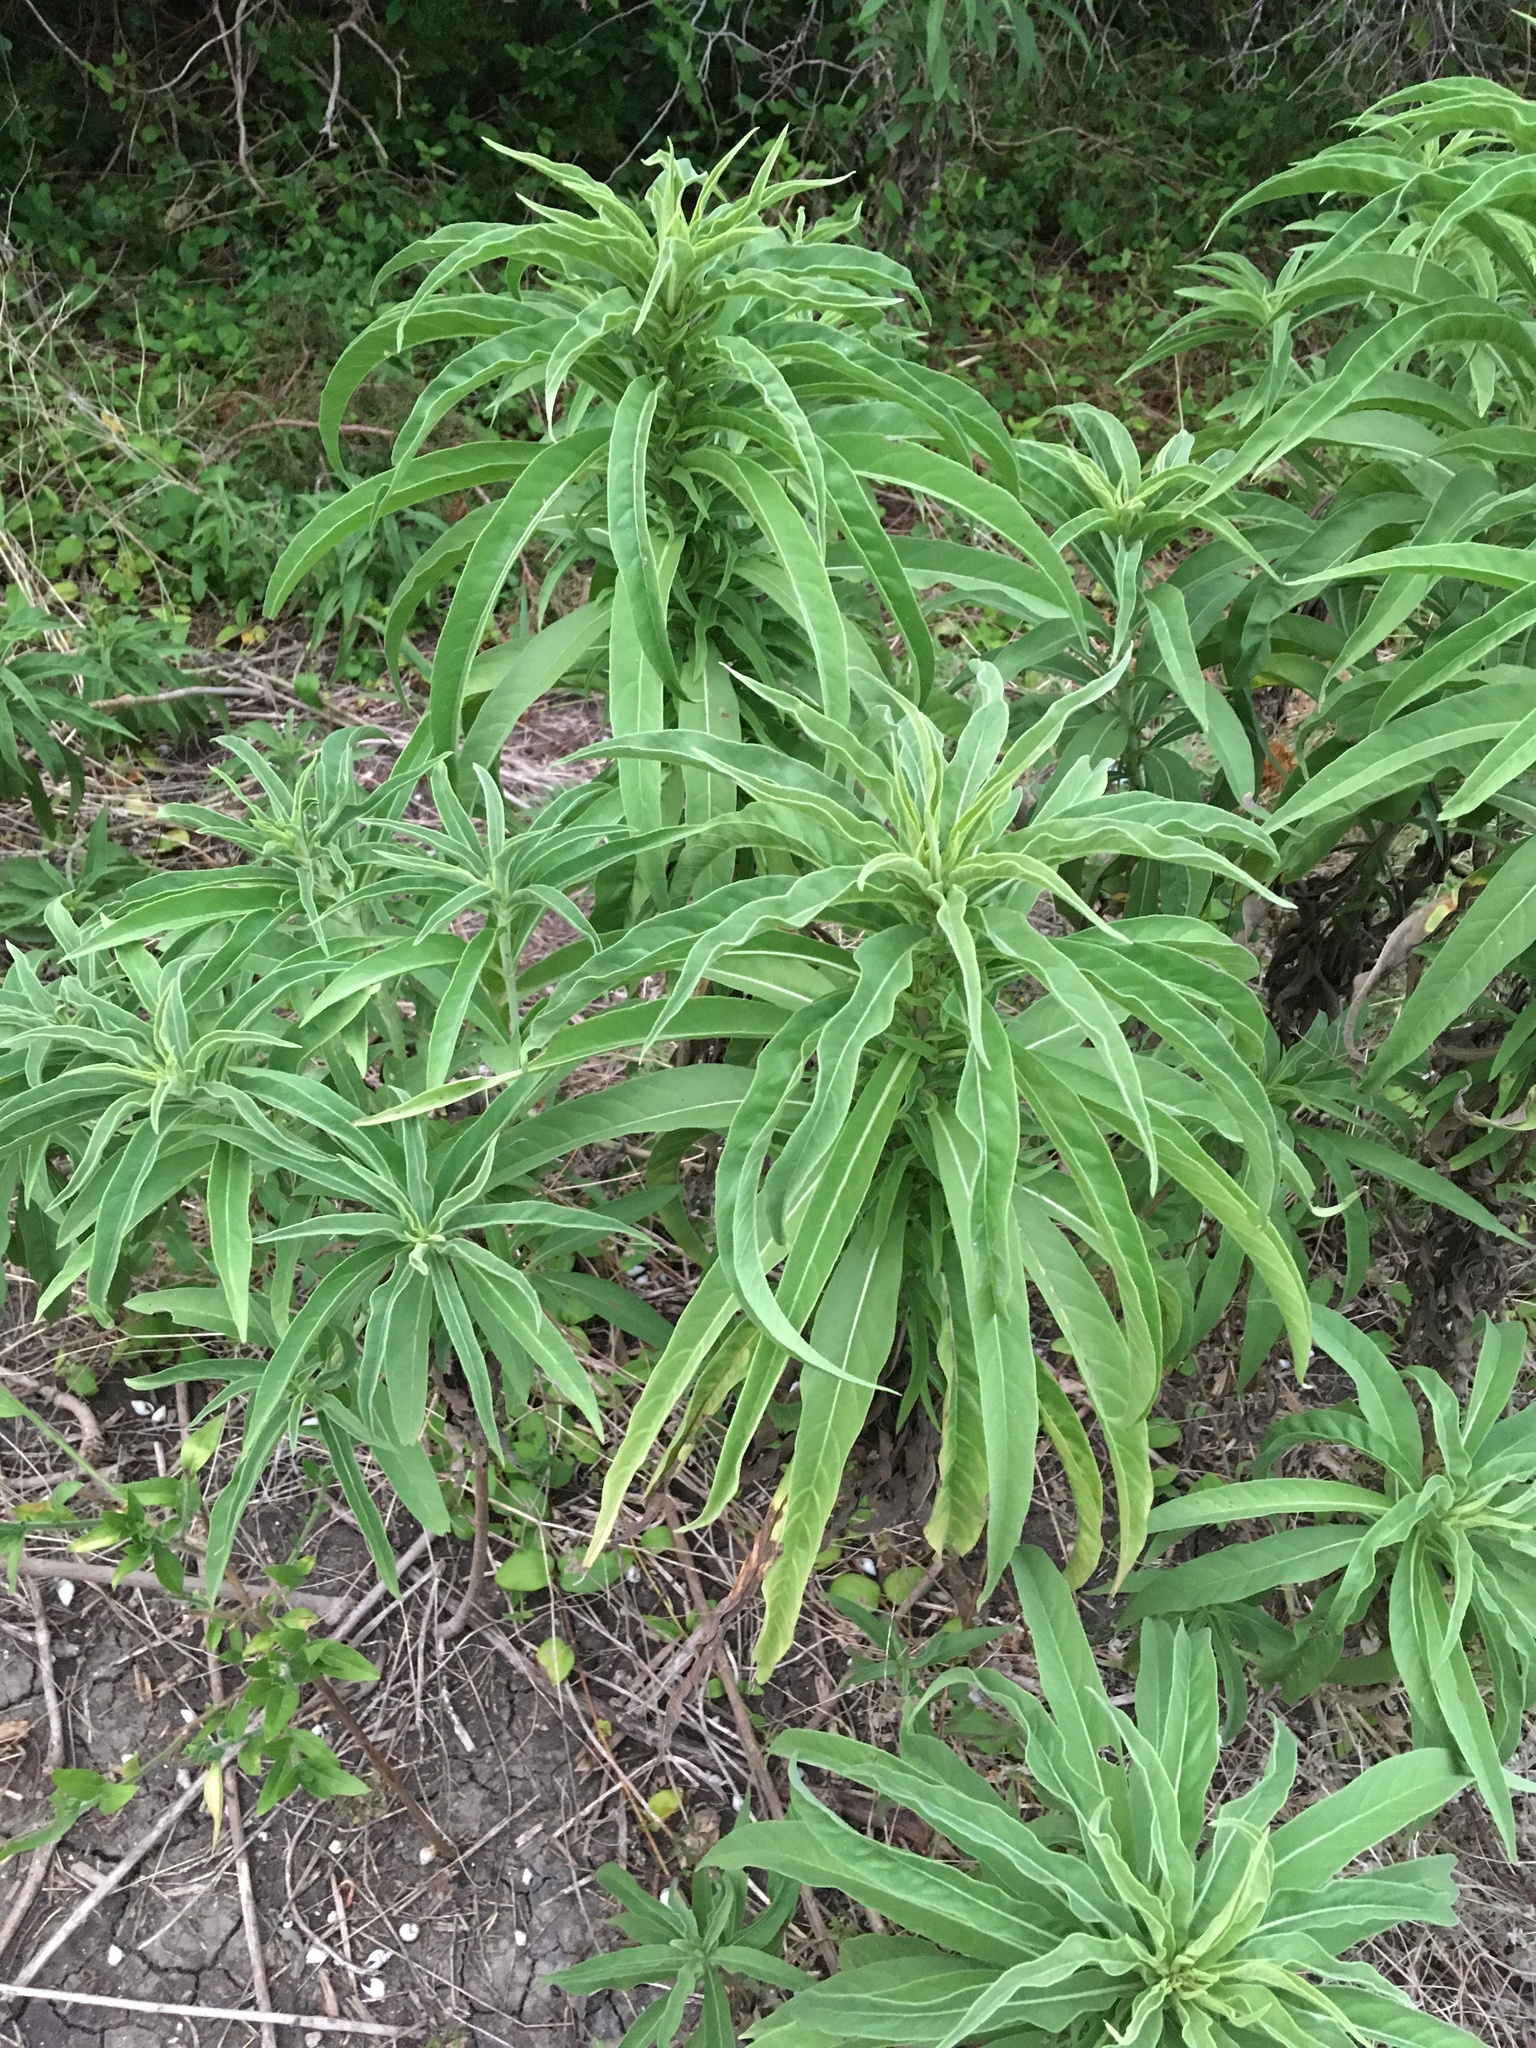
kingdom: Plantae
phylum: Tracheophyta
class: Magnoliopsida
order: Asterales
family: Asteraceae
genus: Helianthus
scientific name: Helianthus maximiliani
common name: Maximilian's sunflower
